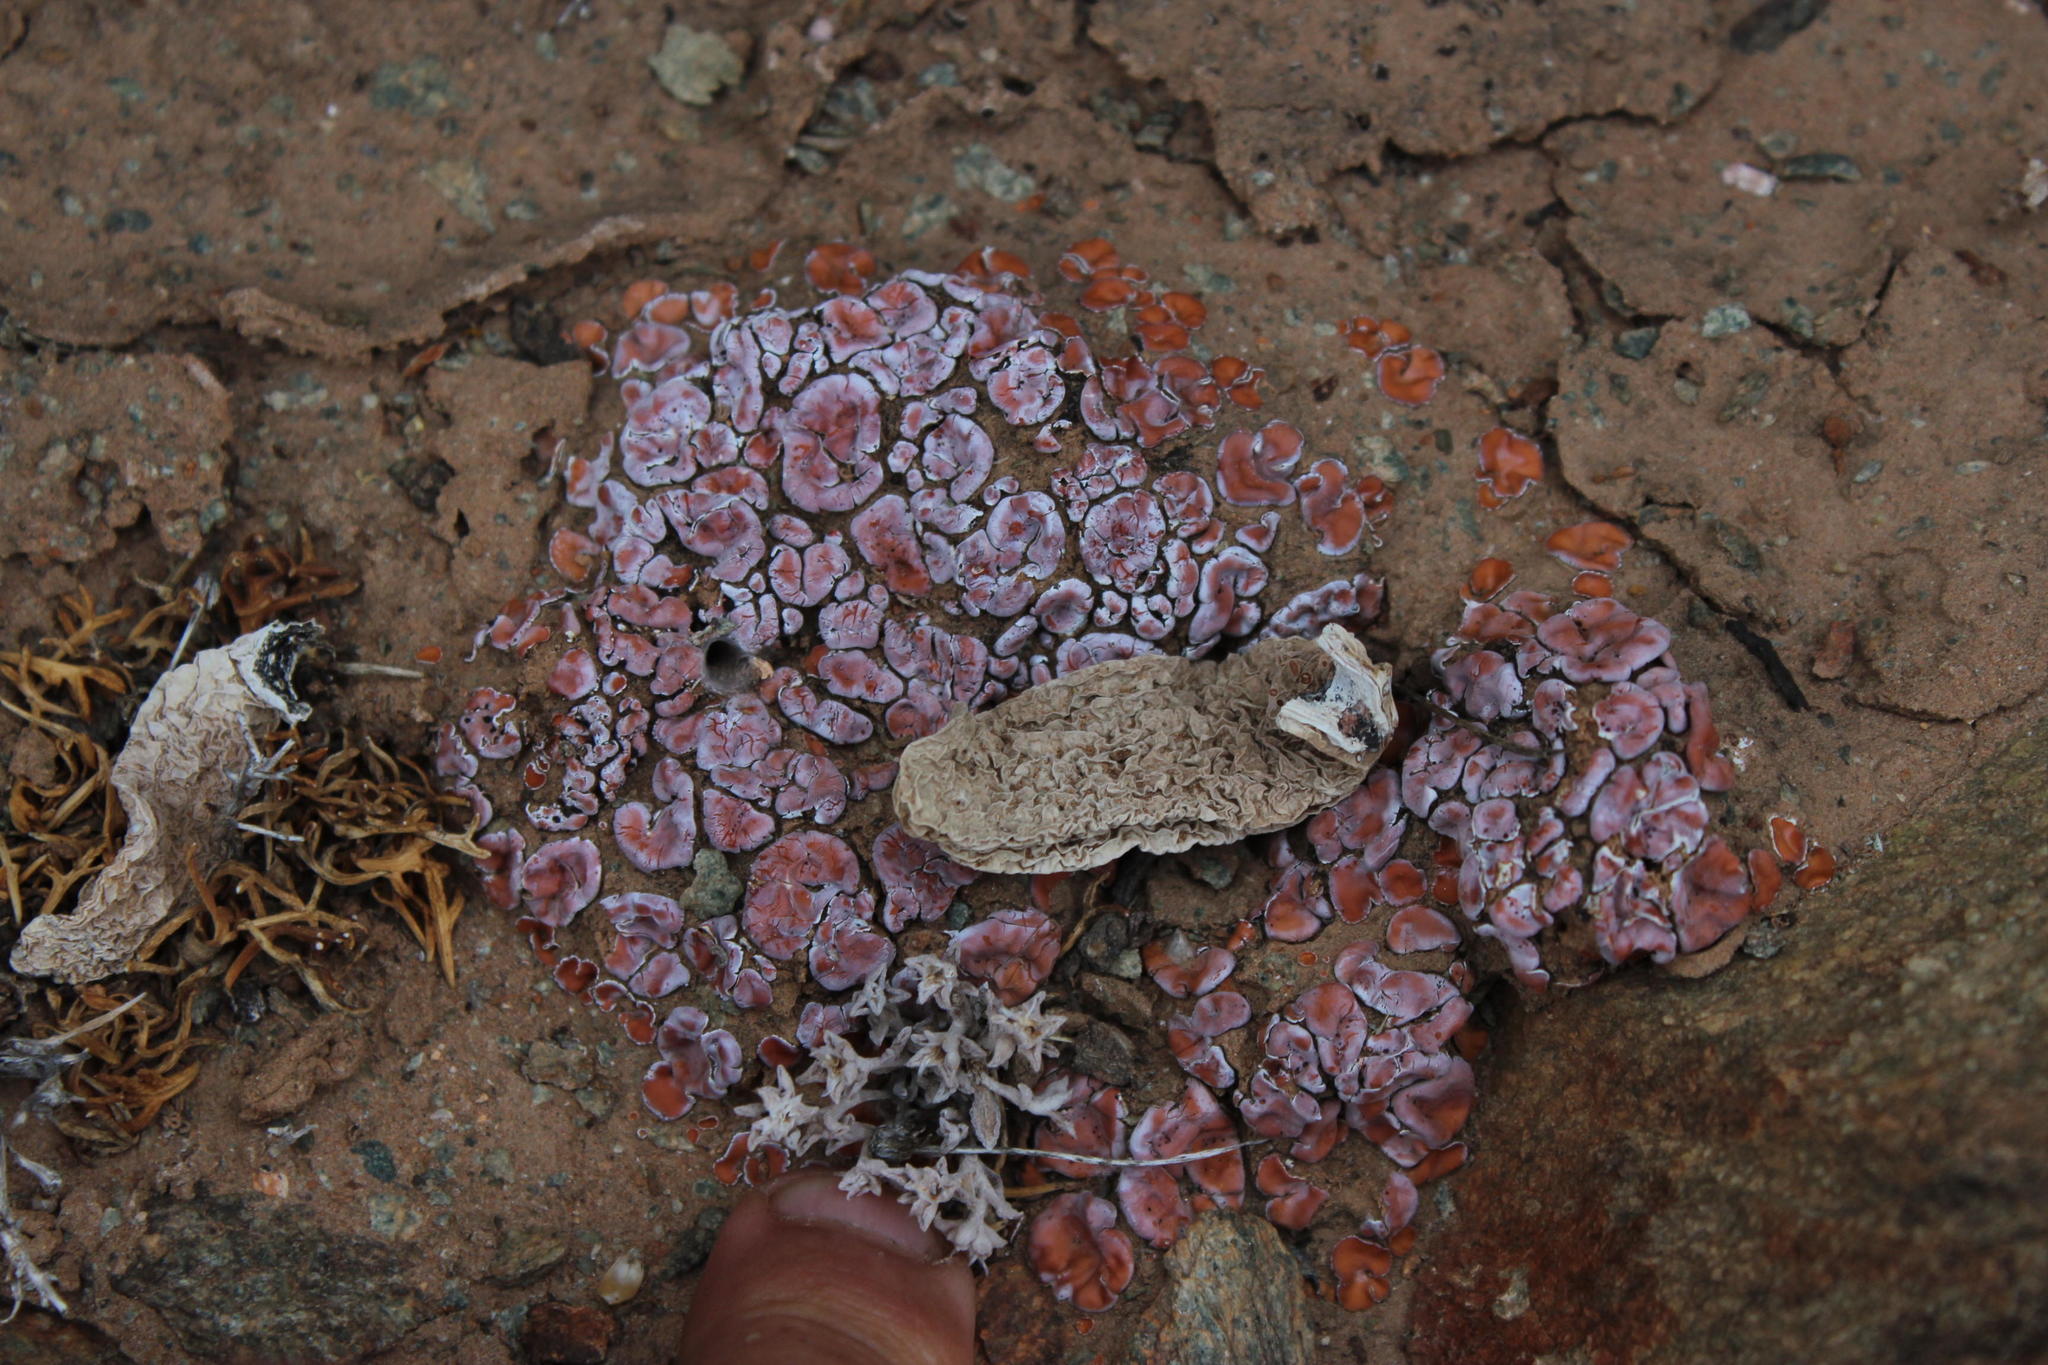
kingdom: Fungi
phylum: Ascomycota
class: Lecanoromycetes
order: Lecanorales
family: Psoraceae
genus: Psora
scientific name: Psora crenata
